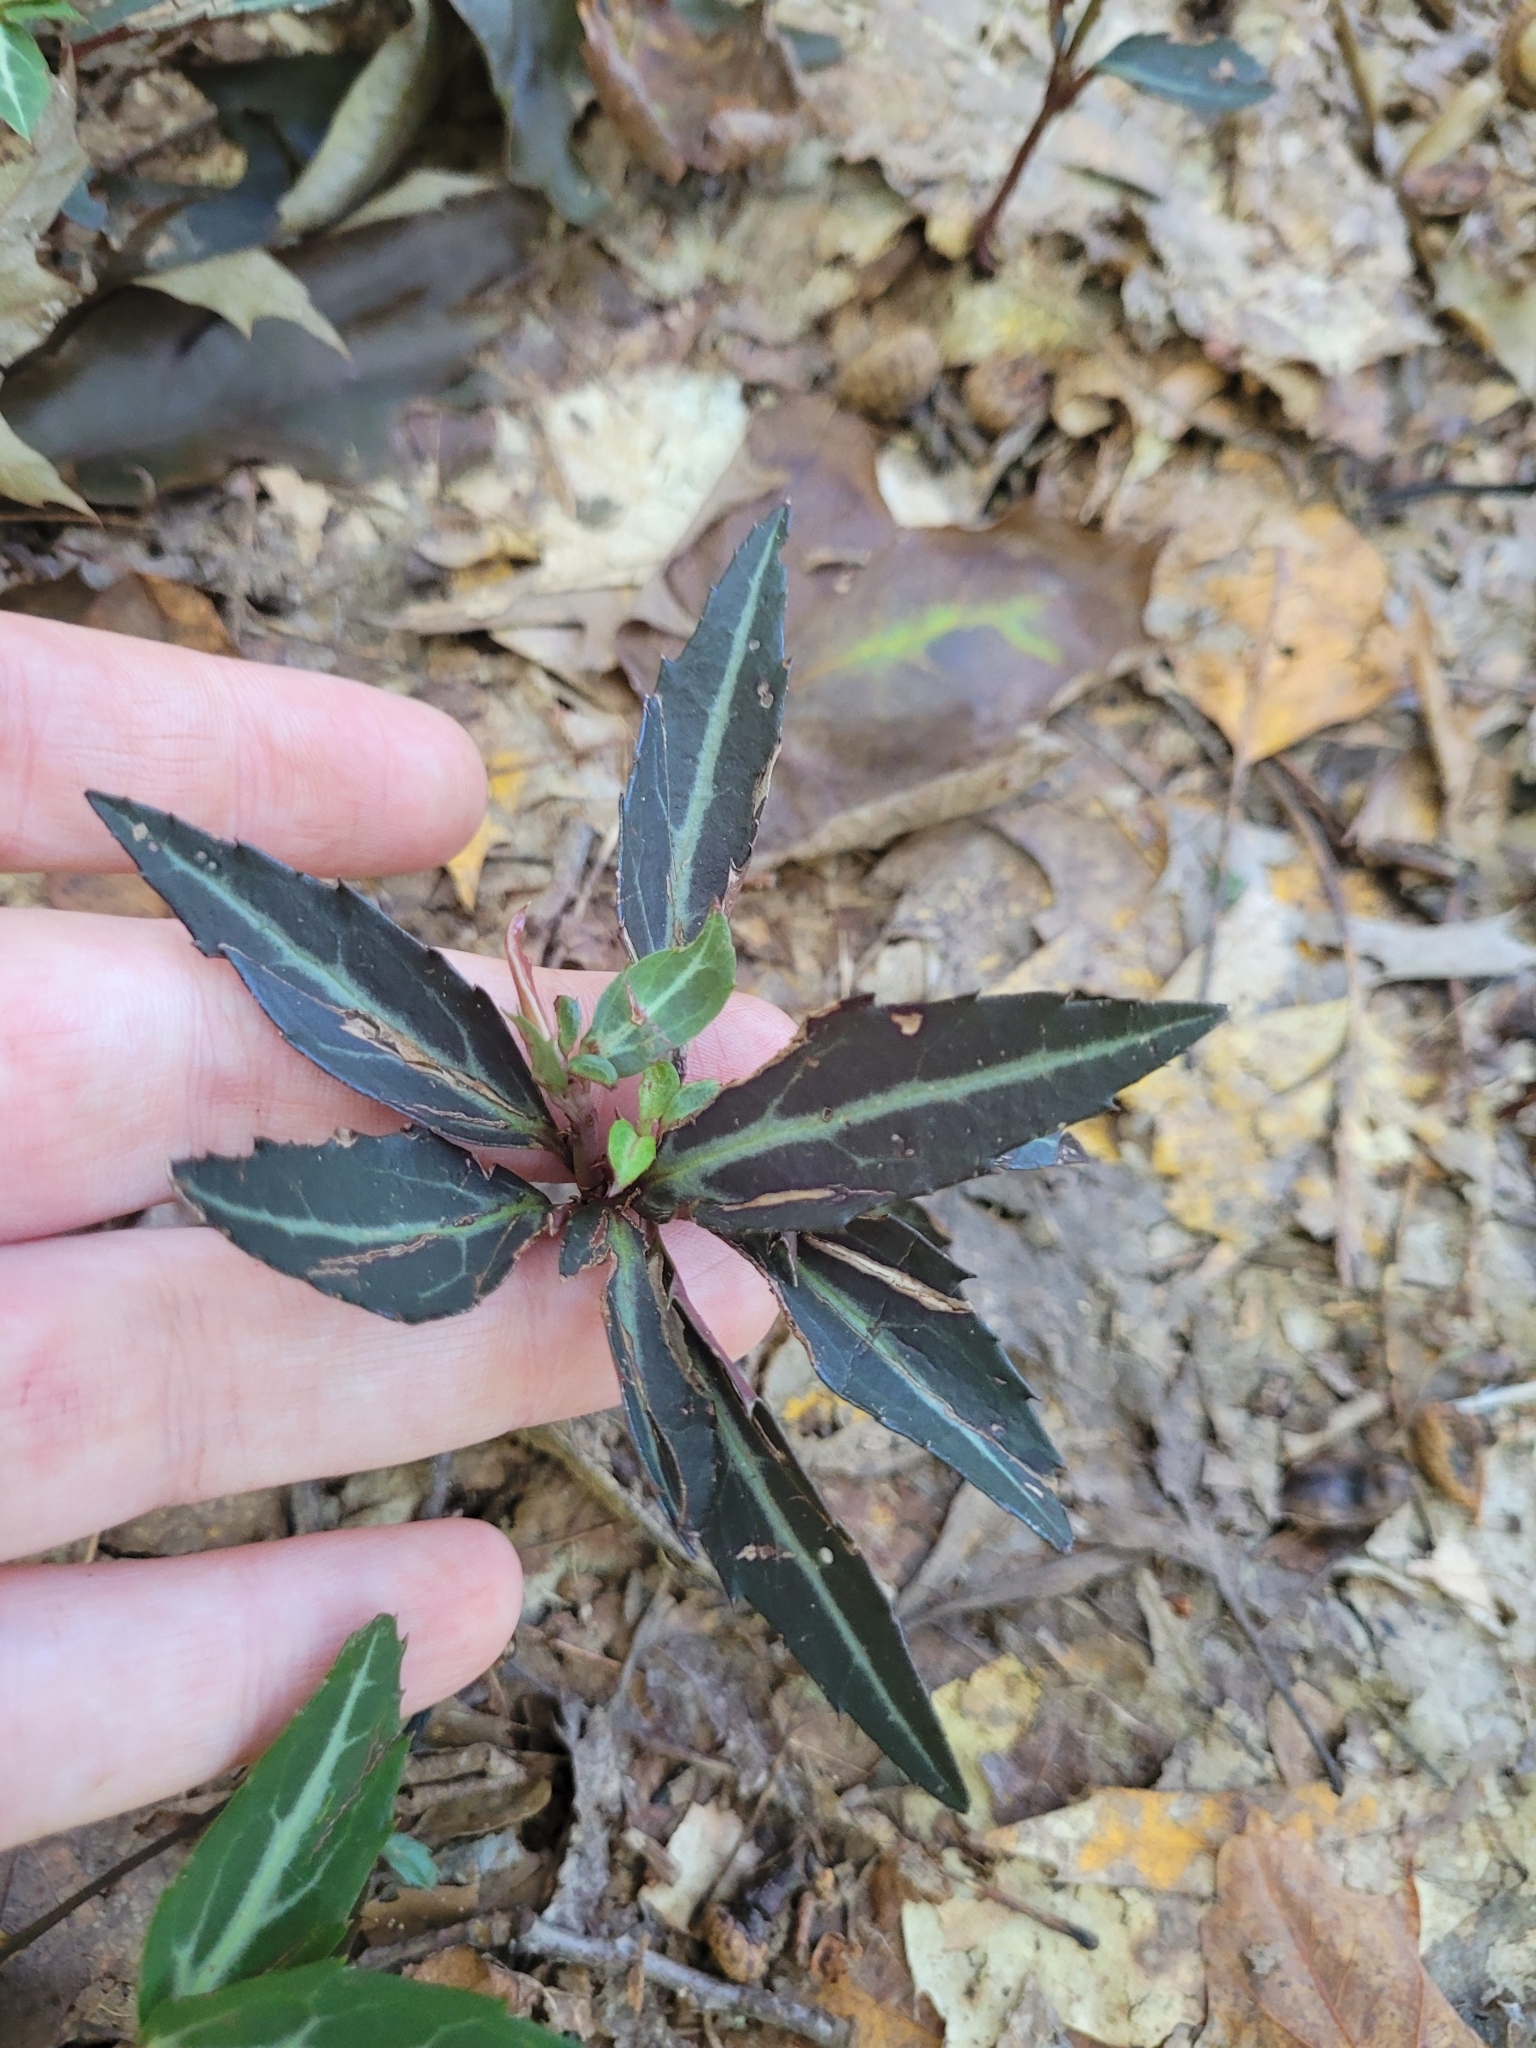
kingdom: Plantae
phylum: Tracheophyta
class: Magnoliopsida
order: Ericales
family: Ericaceae
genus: Chimaphila
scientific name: Chimaphila maculata
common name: Spotted pipsissewa
